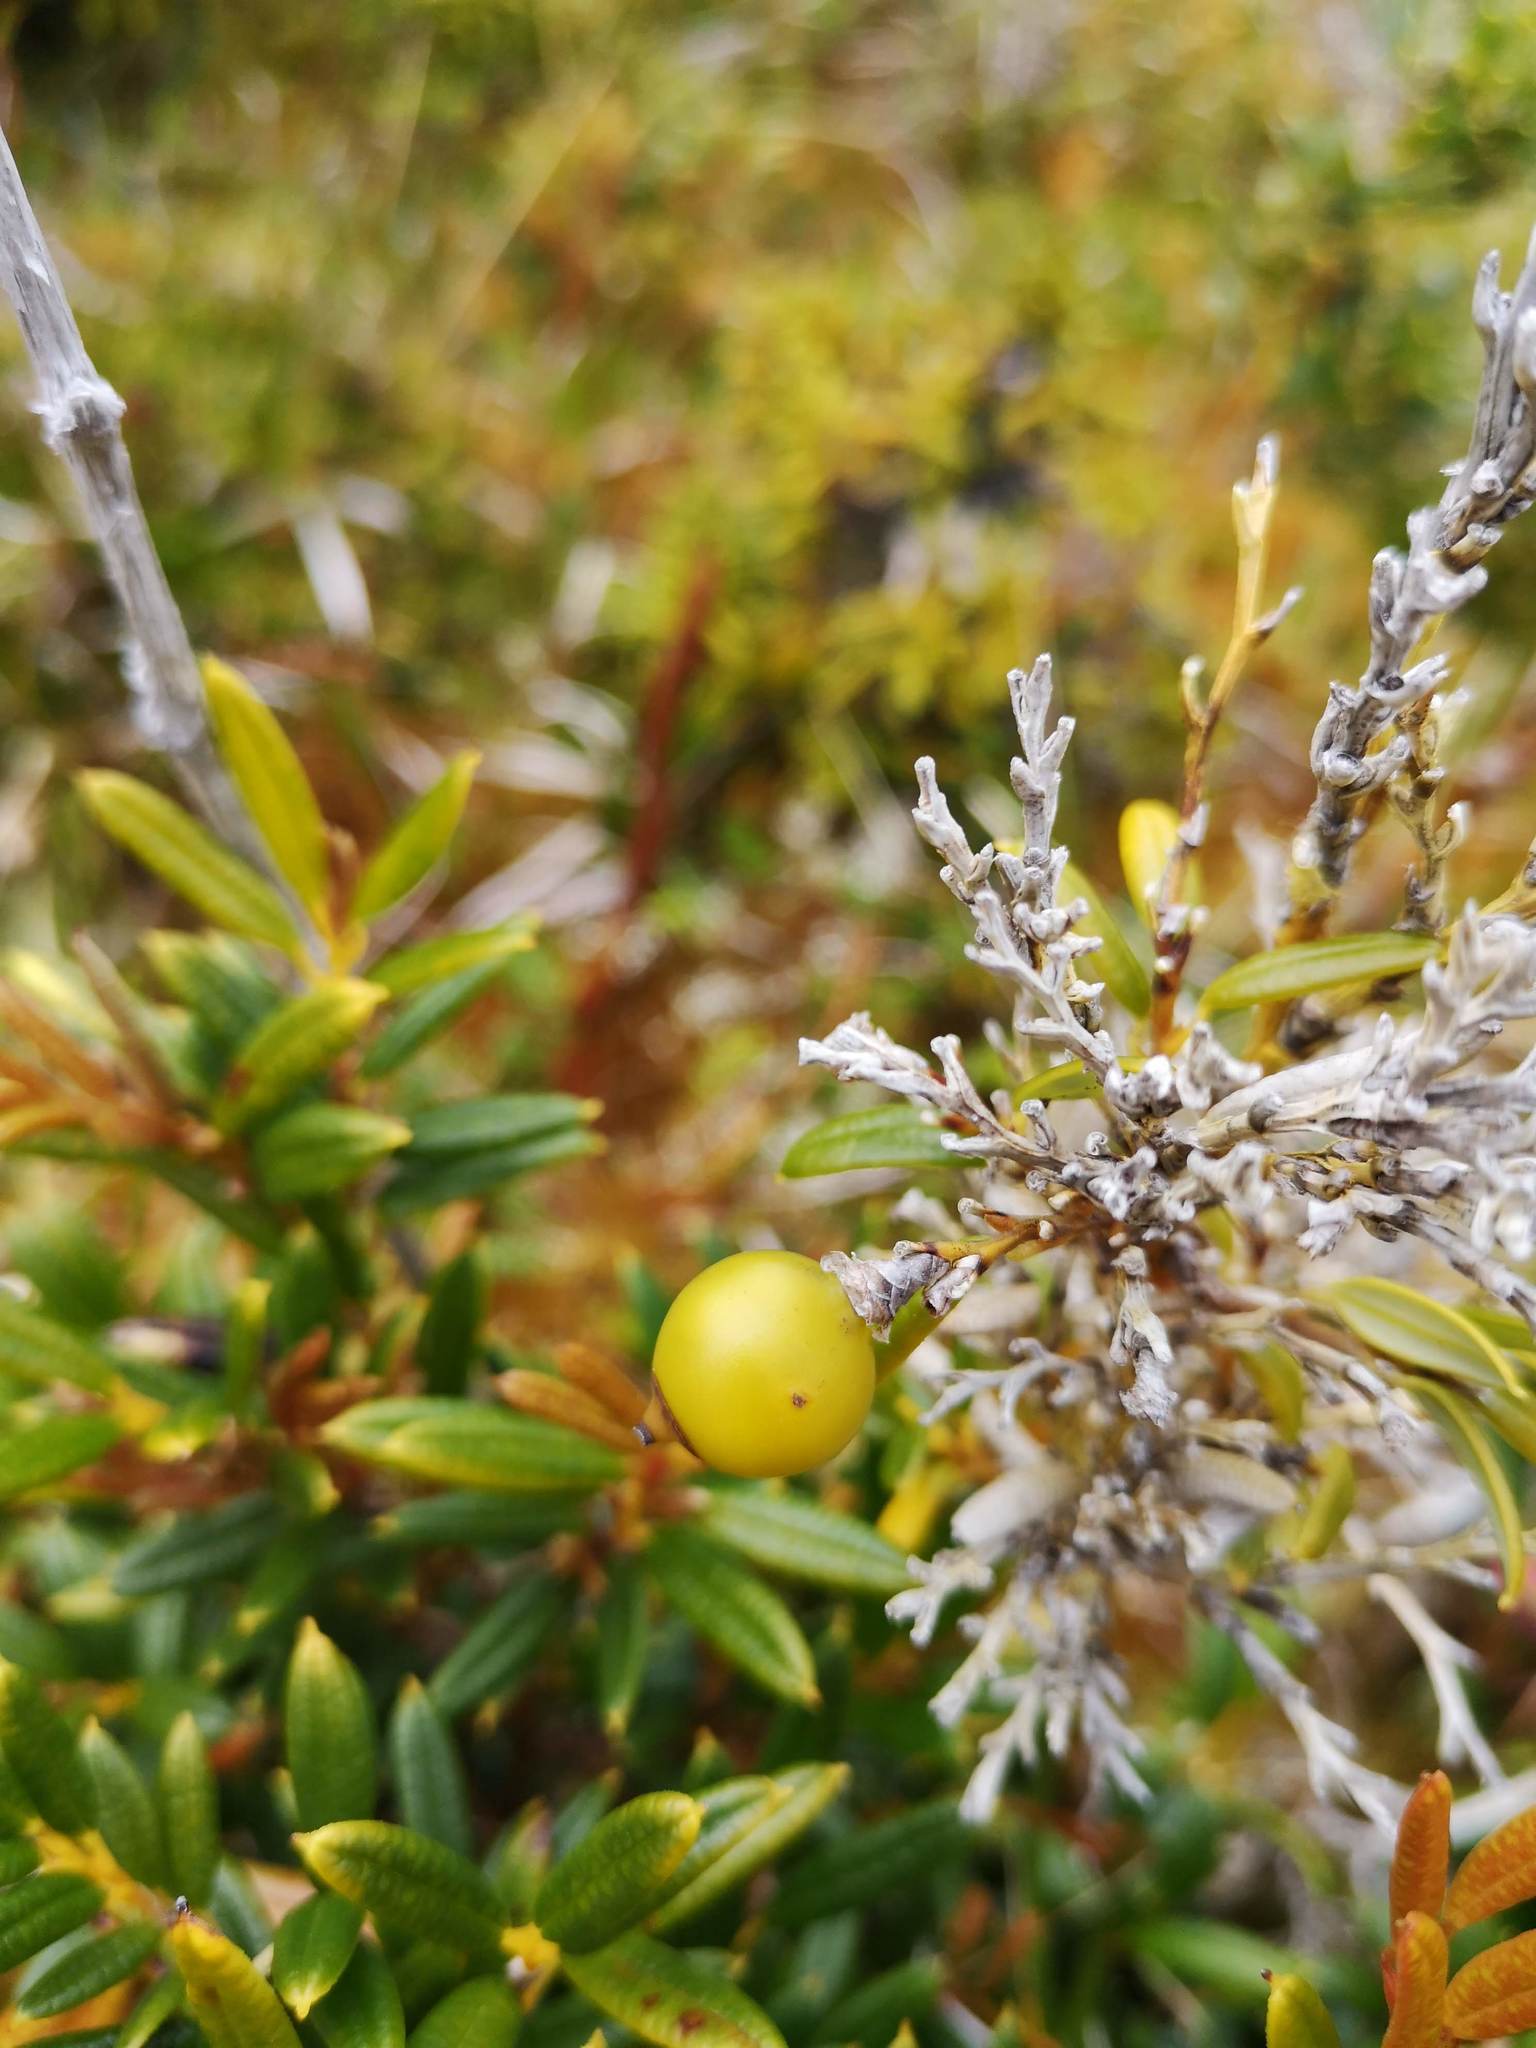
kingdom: Plantae
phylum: Tracheophyta
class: Liliopsida
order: Liliales
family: Philesiaceae
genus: Philesia
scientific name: Philesia magellanica
